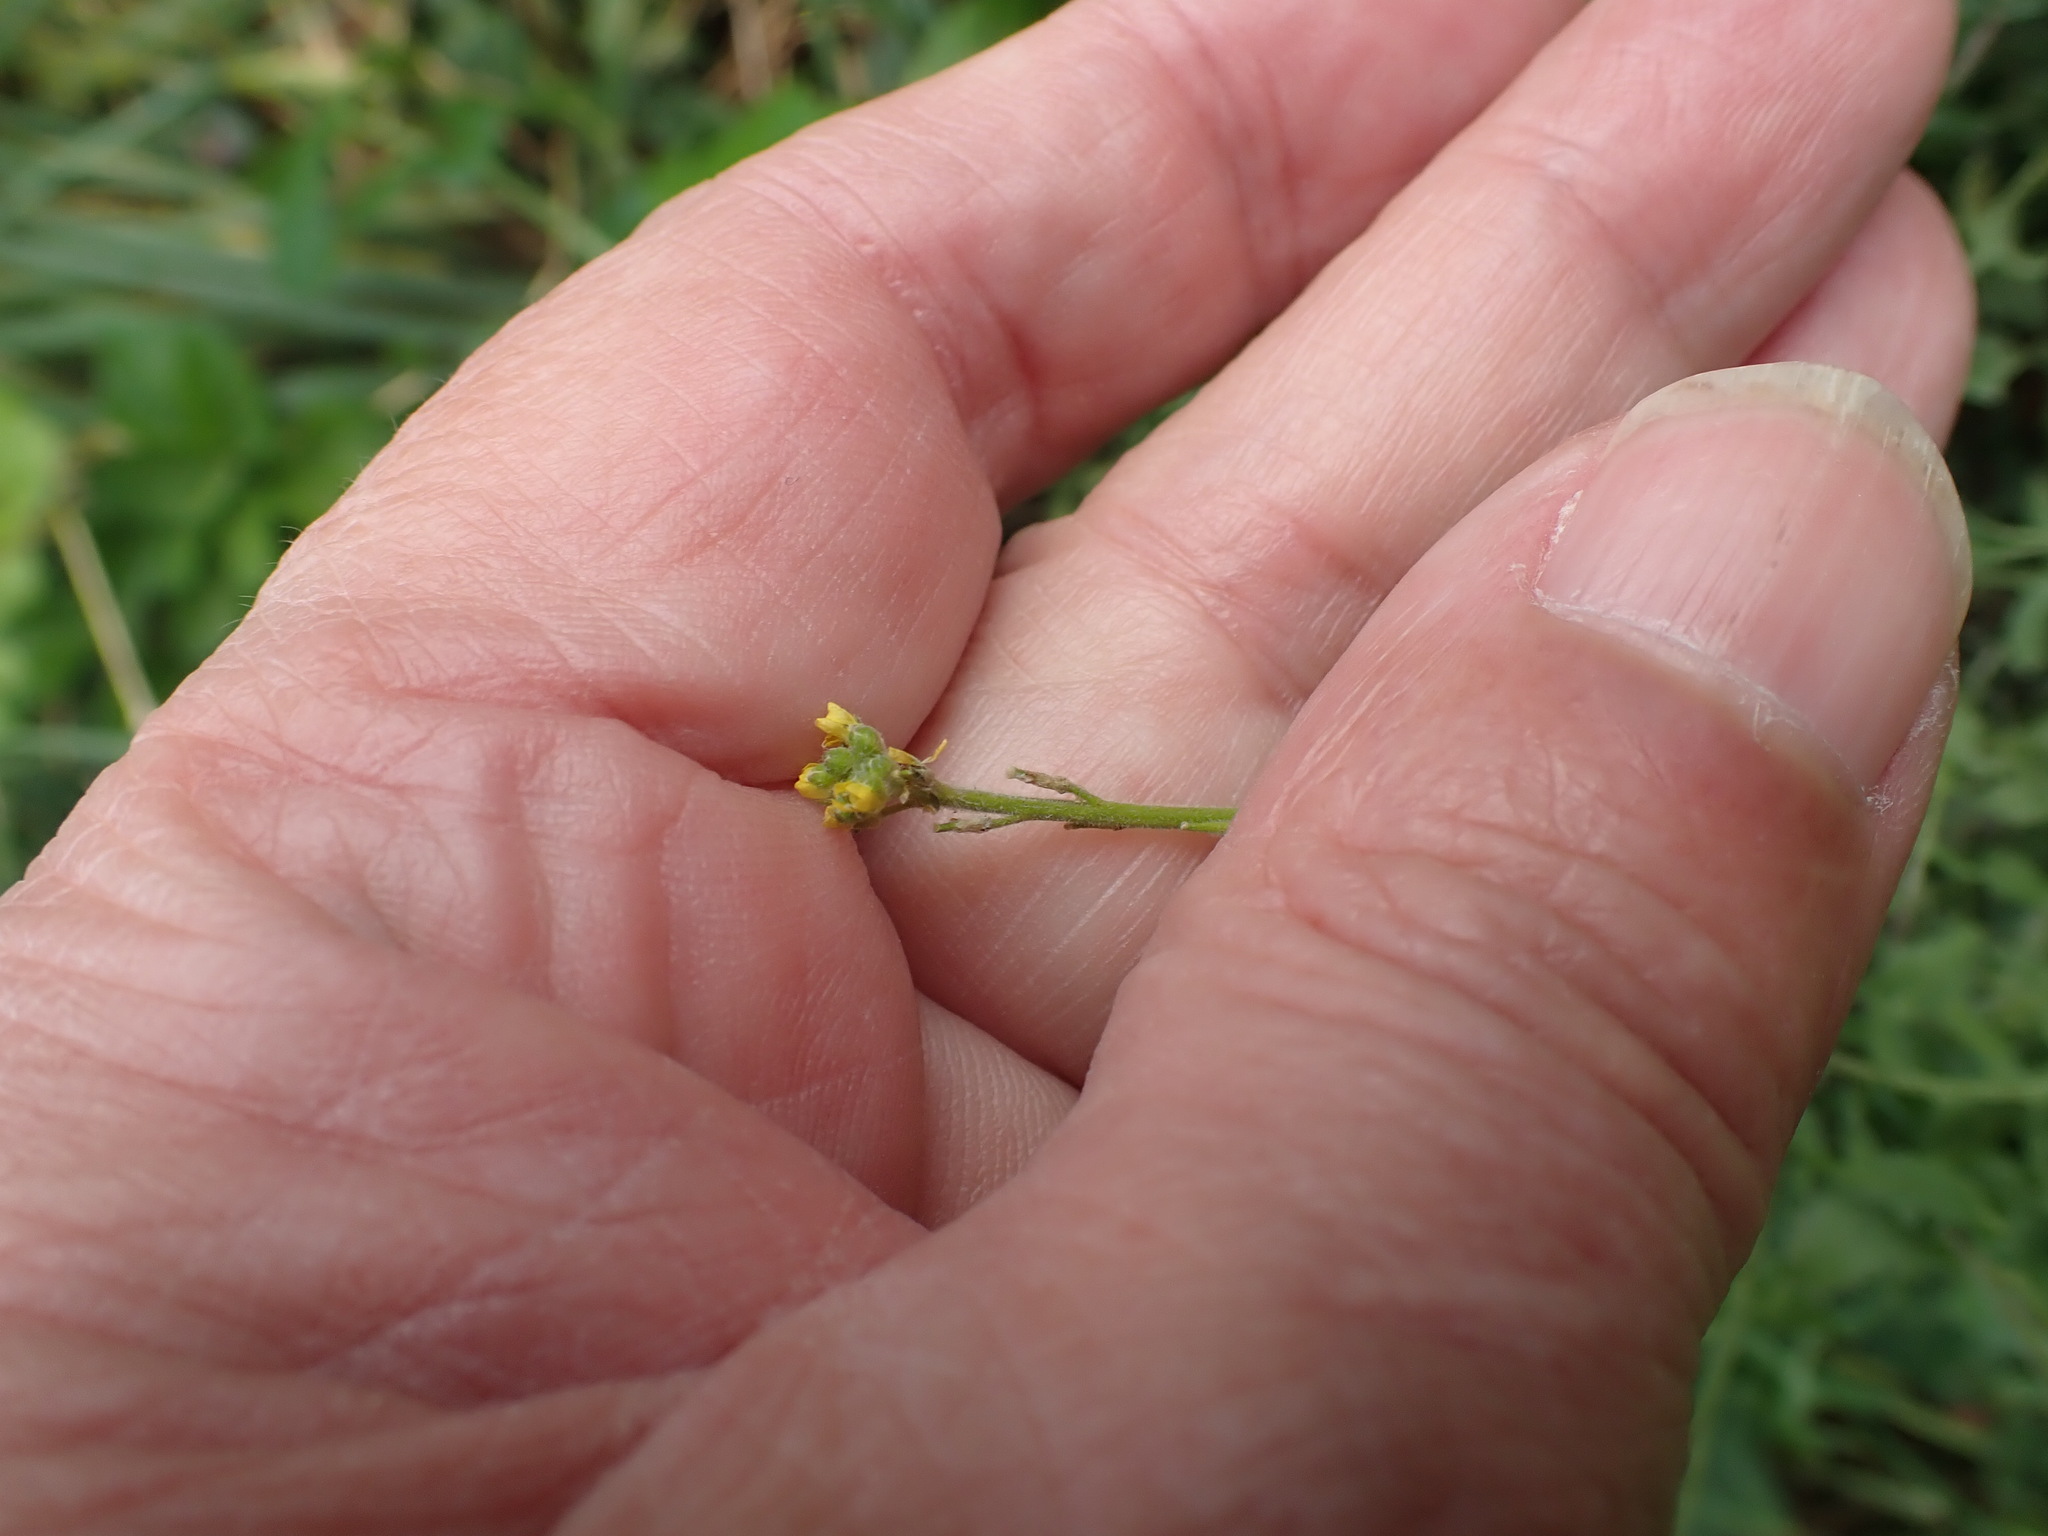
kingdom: Plantae
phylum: Tracheophyta
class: Magnoliopsida
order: Brassicales
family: Brassicaceae
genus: Sisymbrium
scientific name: Sisymbrium officinale
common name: Hedge mustard
